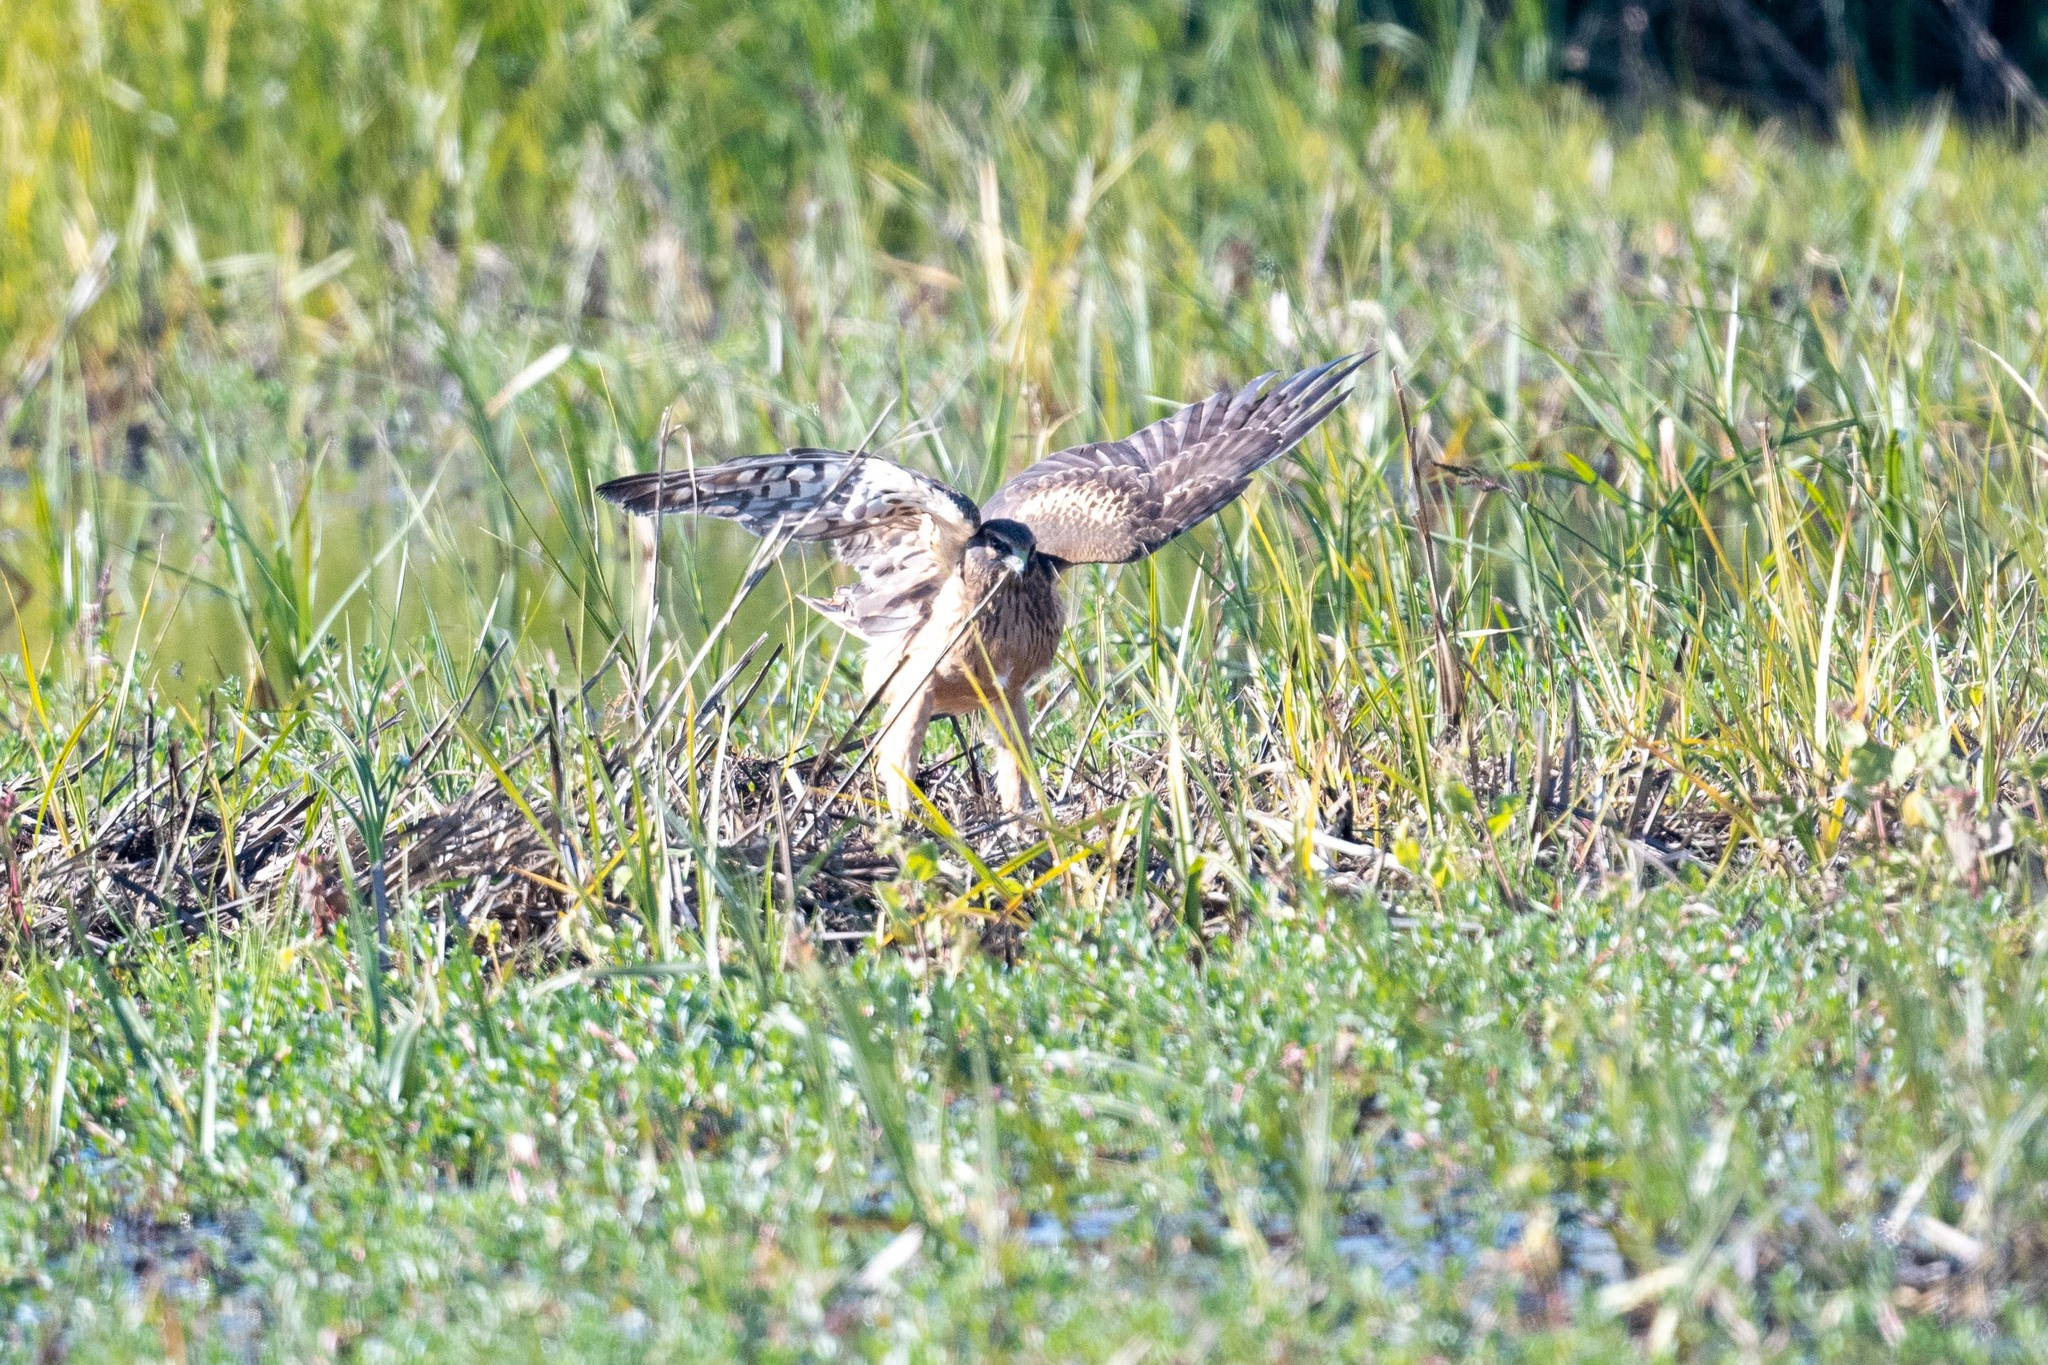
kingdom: Animalia
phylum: Chordata
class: Aves
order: Accipitriformes
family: Accipitridae
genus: Circus
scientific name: Circus cyaneus
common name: Hen harrier
